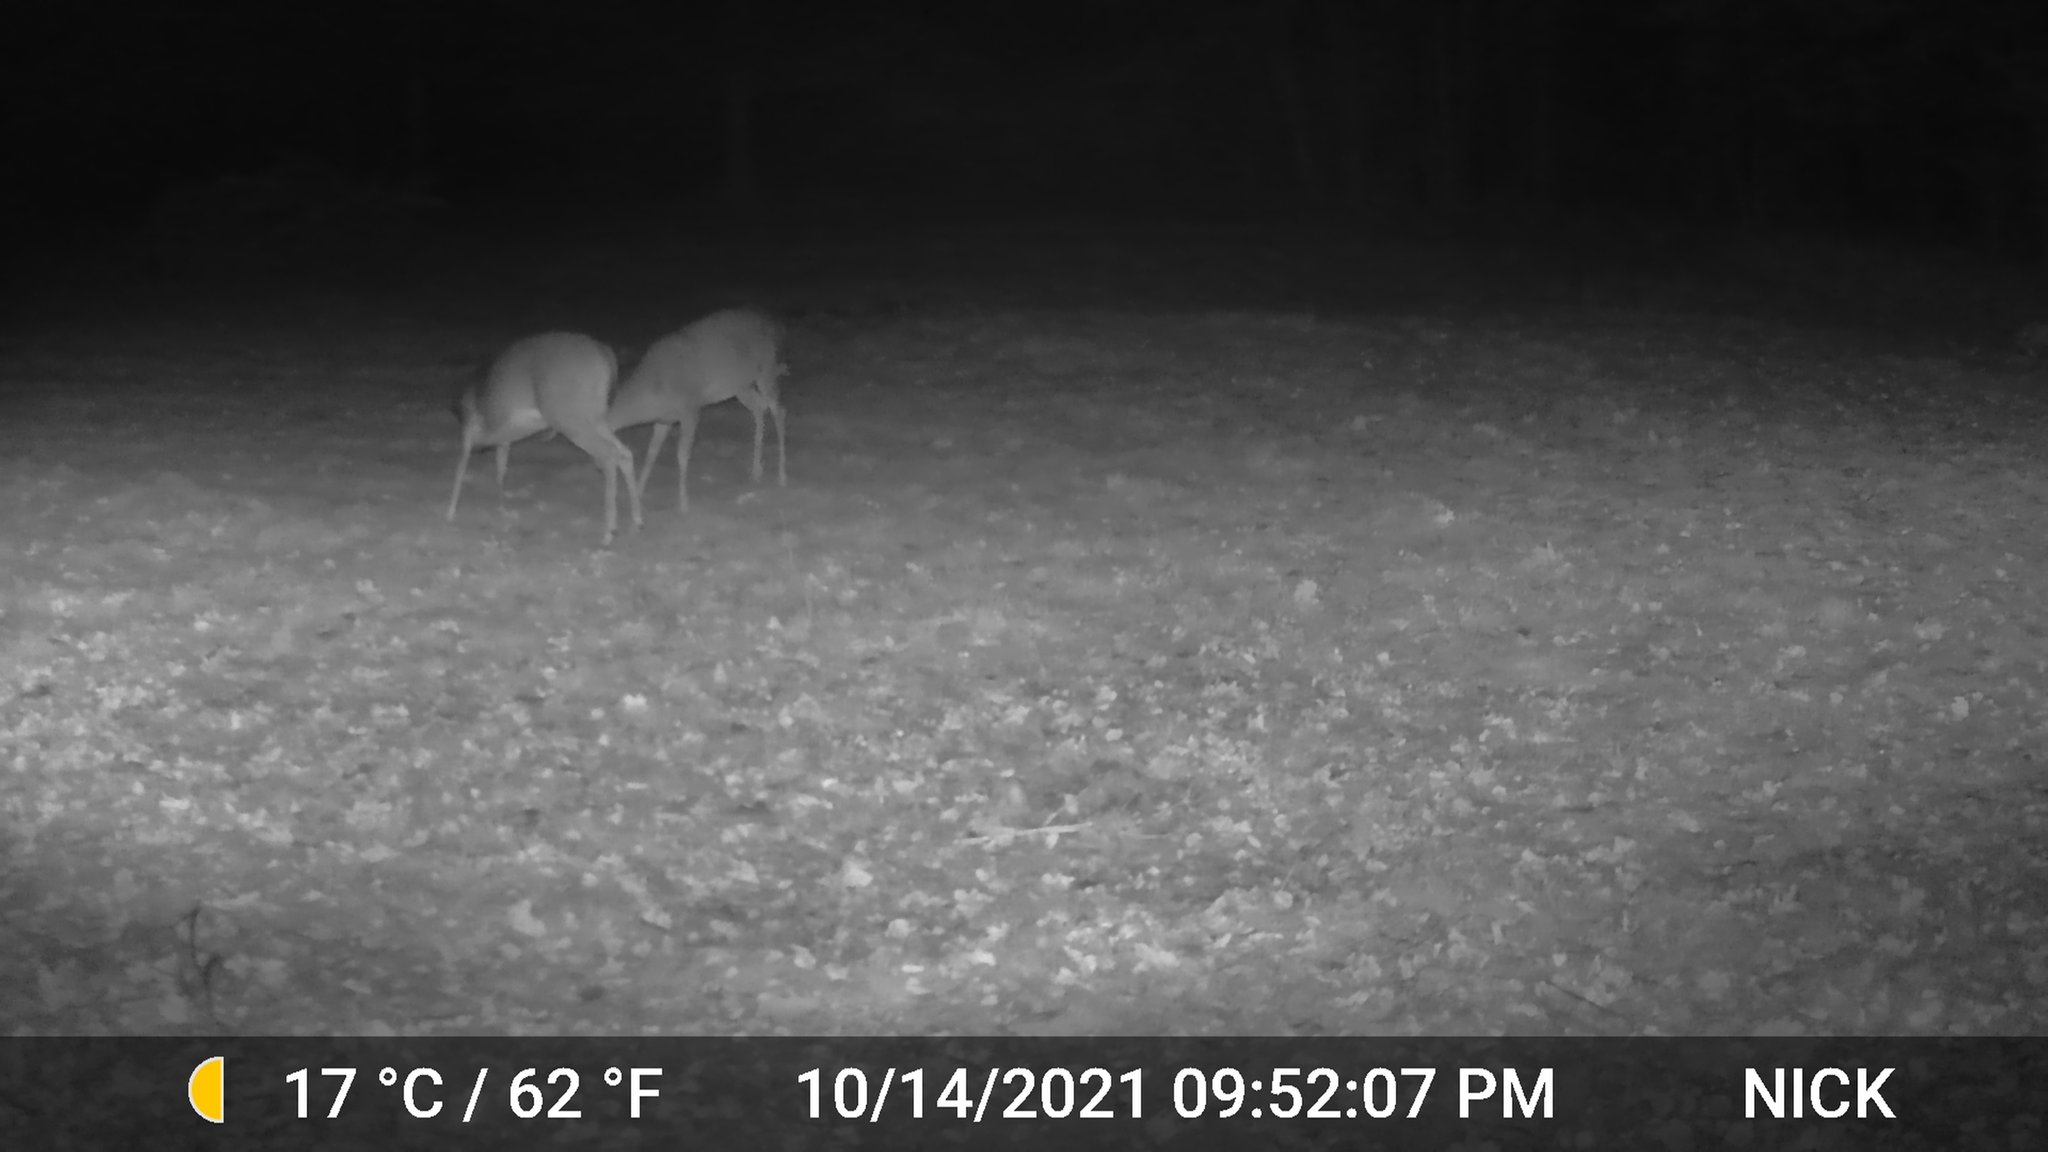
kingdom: Animalia
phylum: Chordata
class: Mammalia
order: Artiodactyla
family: Cervidae
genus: Odocoileus
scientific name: Odocoileus virginianus
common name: White-tailed deer
